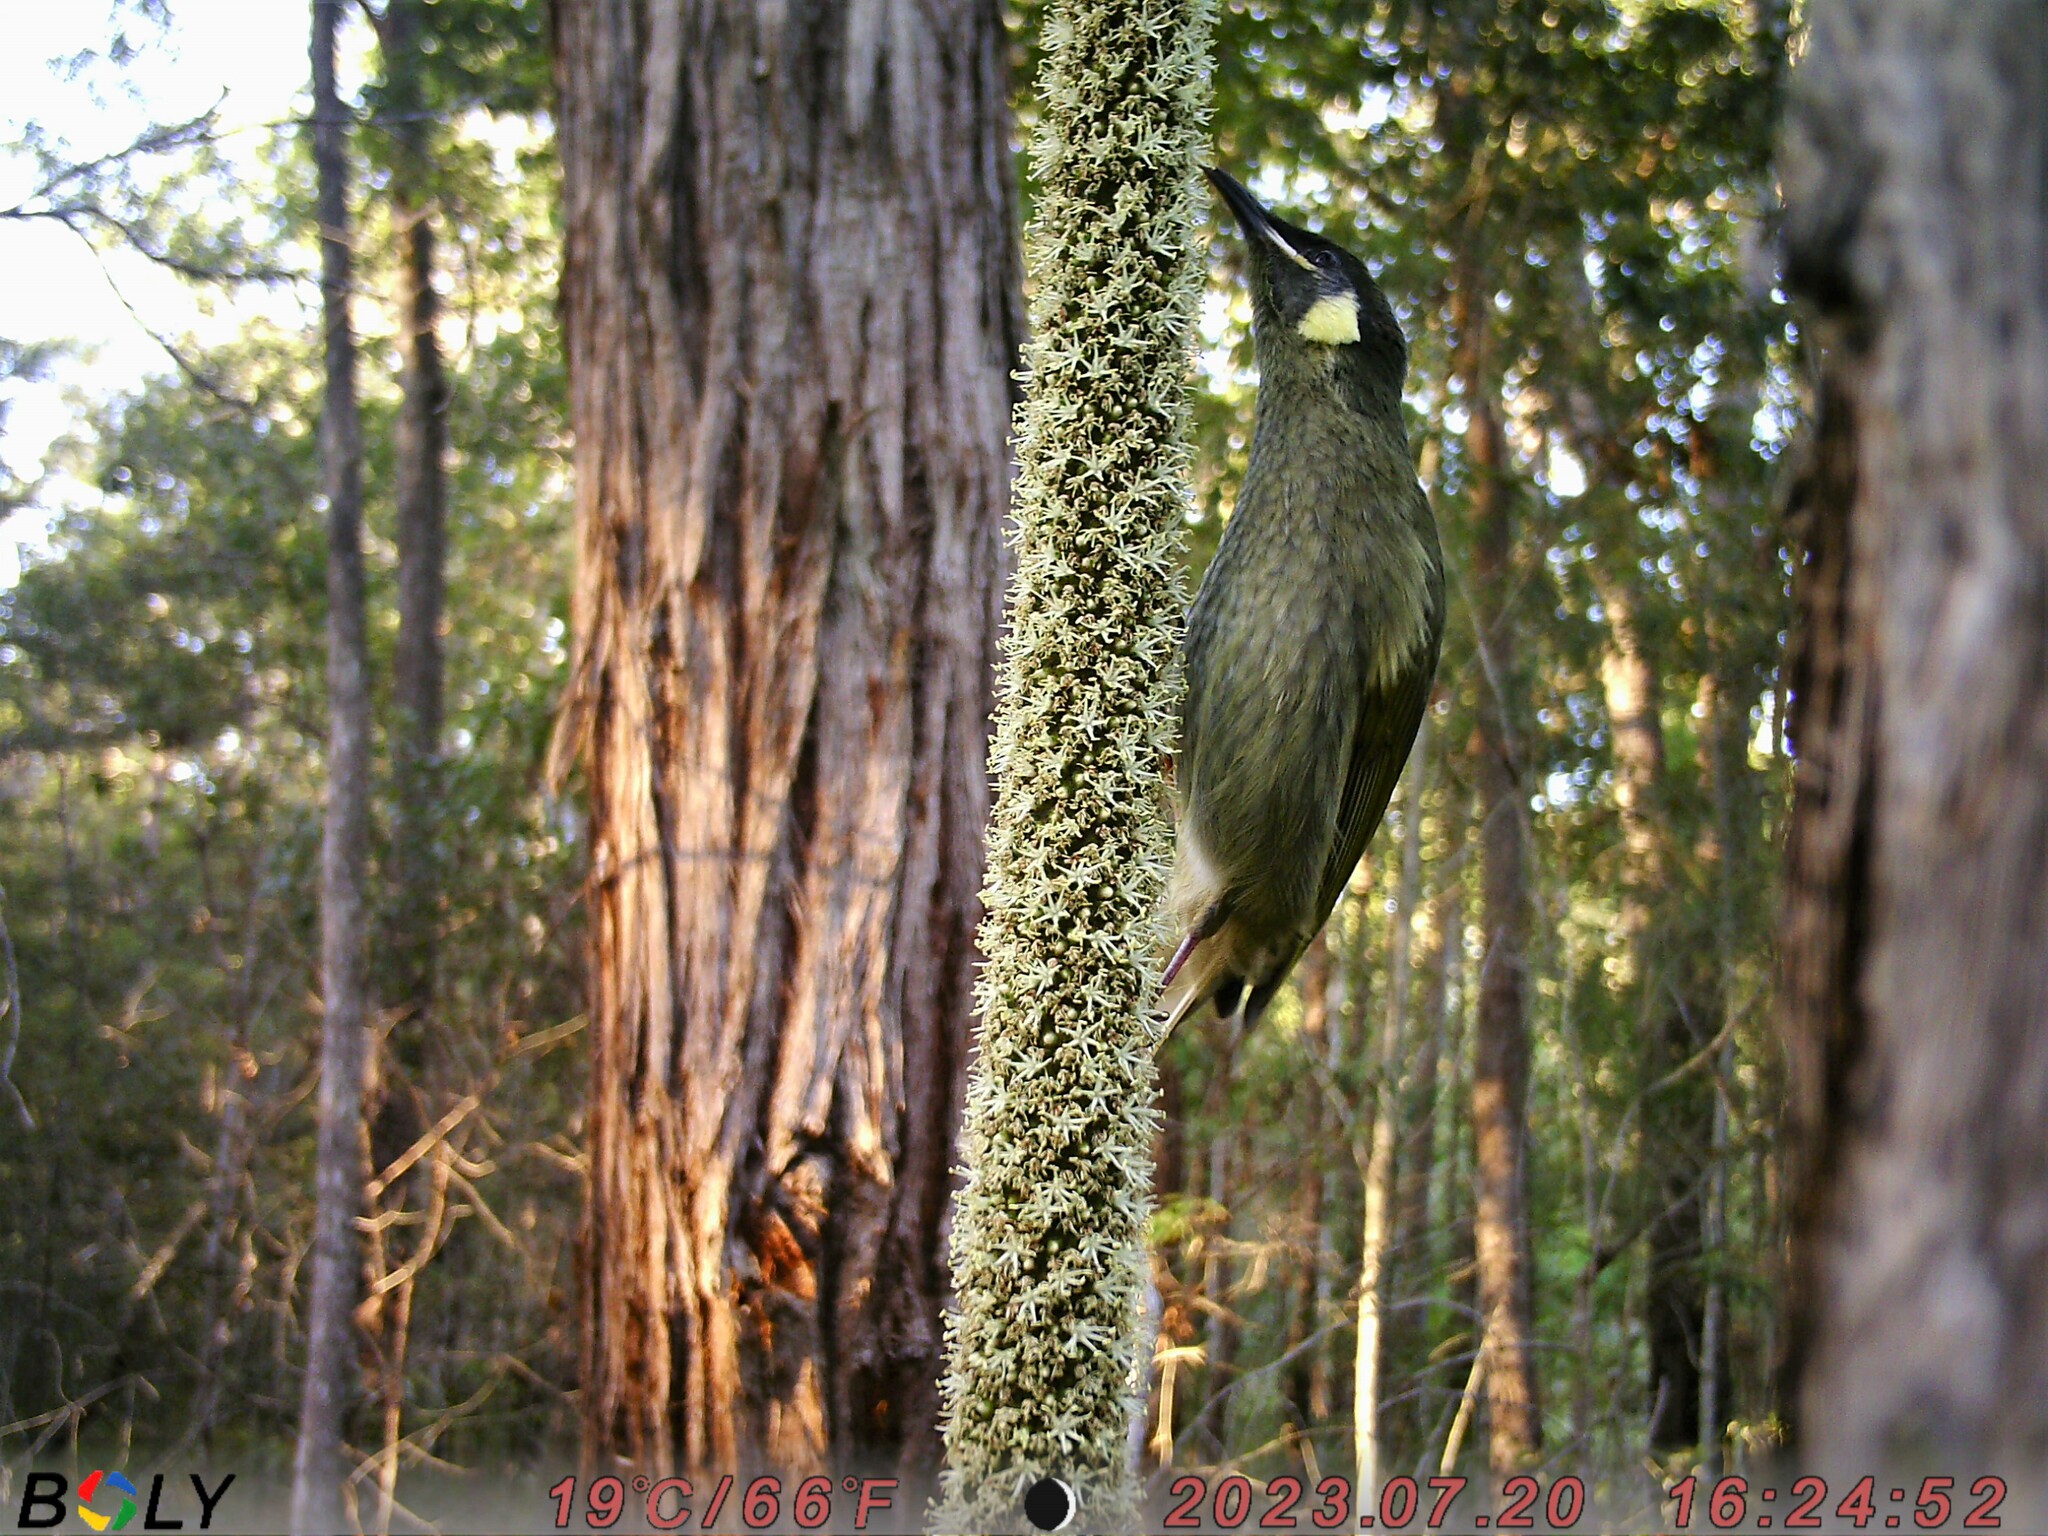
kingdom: Animalia
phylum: Chordata
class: Aves
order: Passeriformes
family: Meliphagidae
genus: Meliphaga
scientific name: Meliphaga lewinii
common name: Lewin's honeyeater
